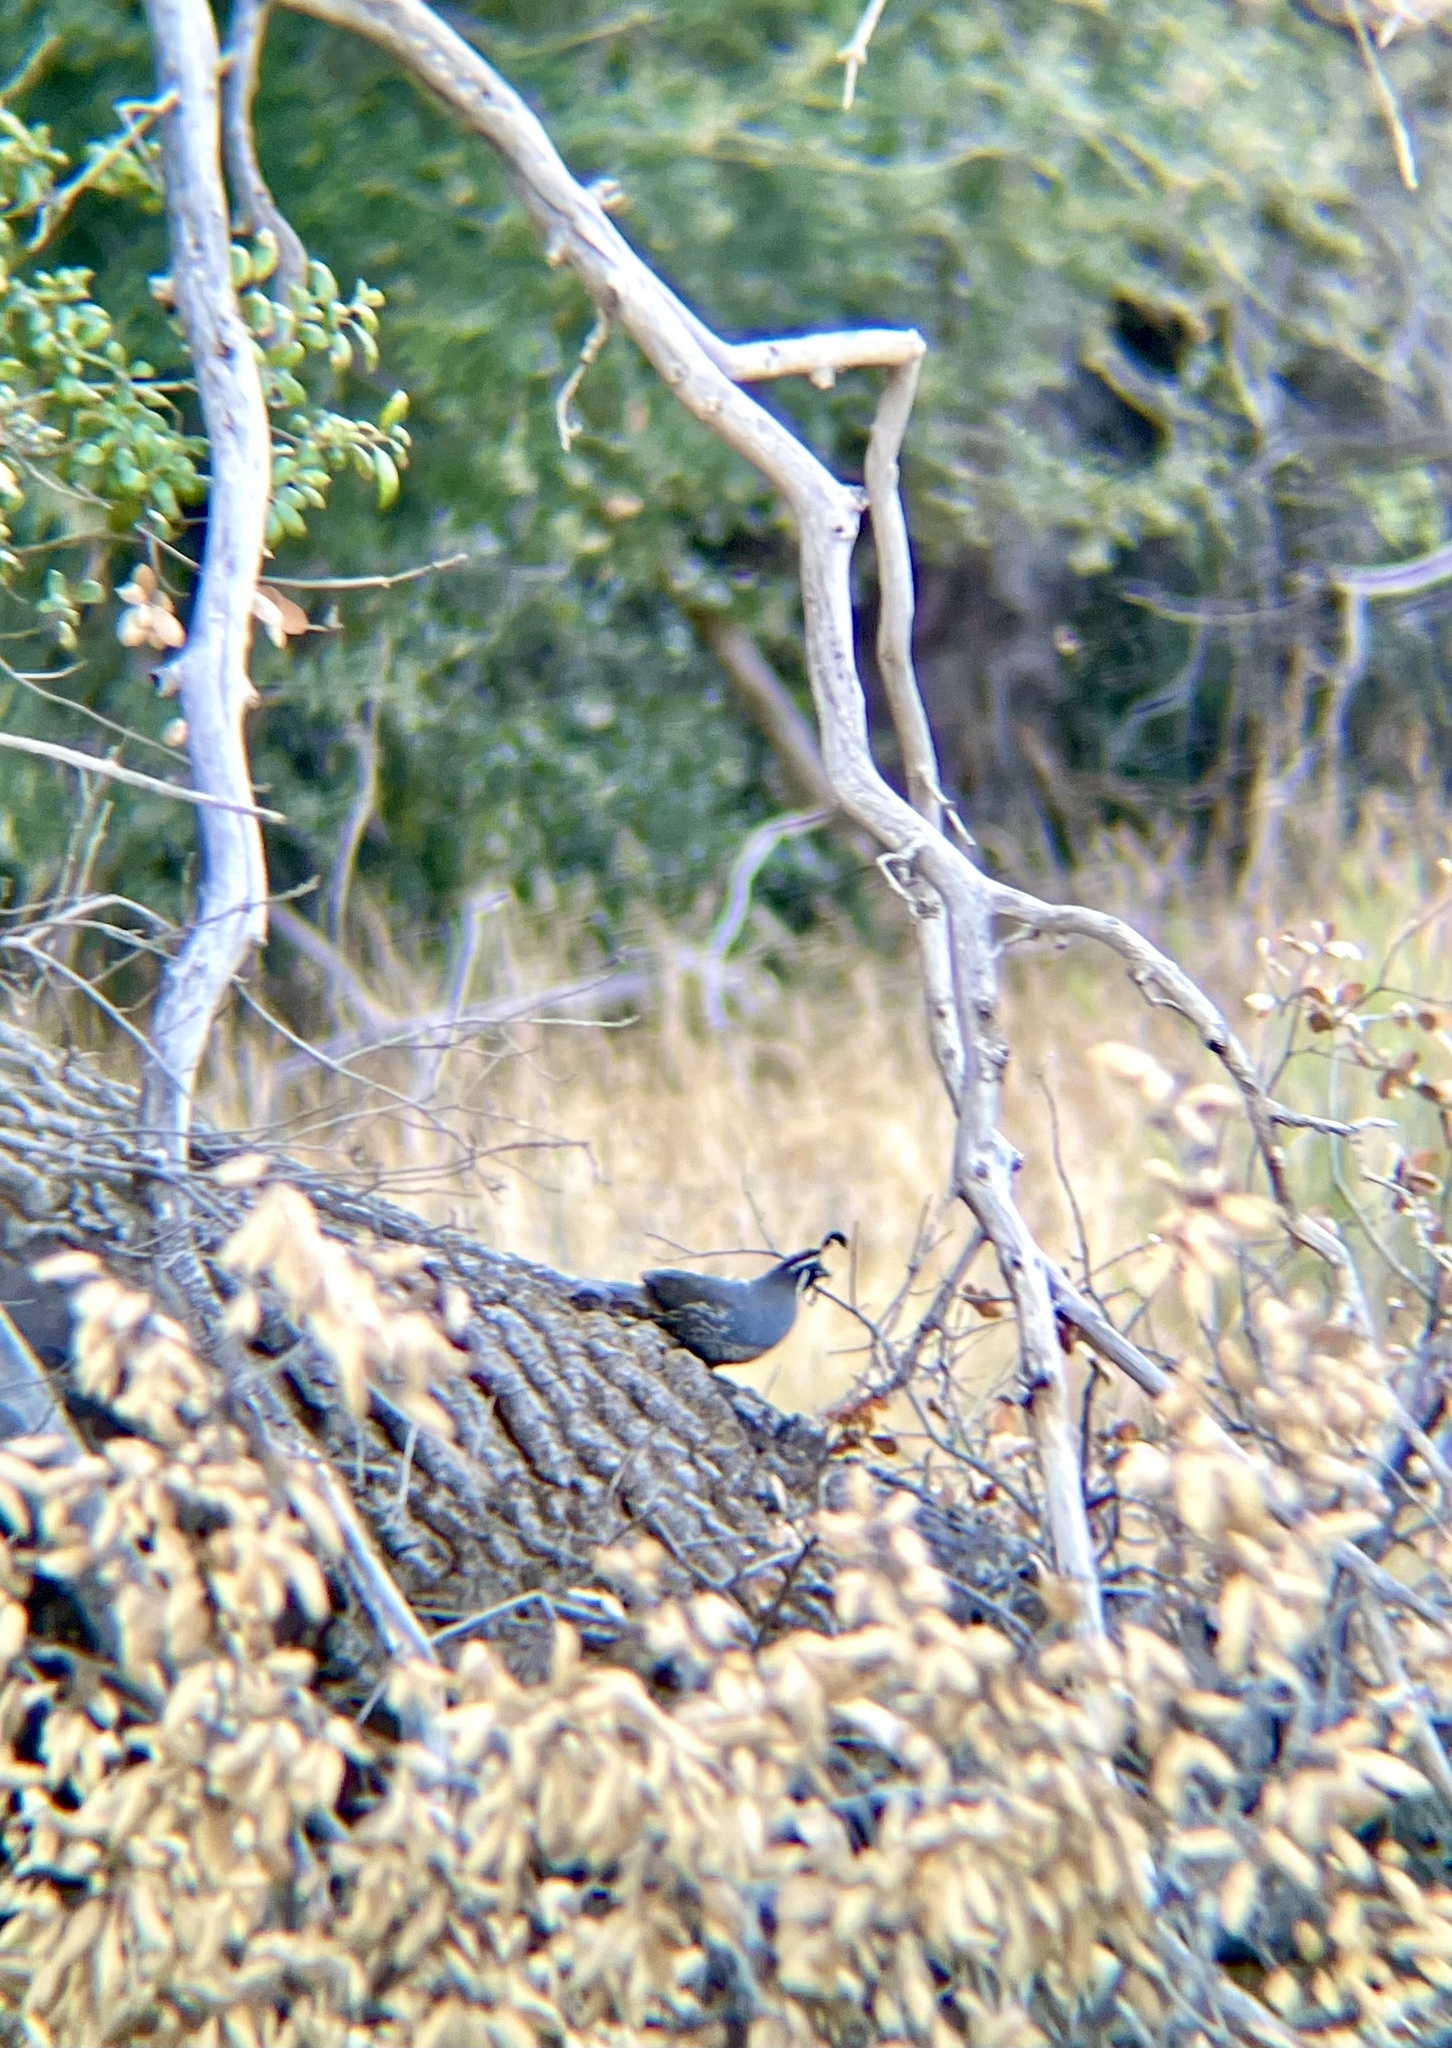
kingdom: Animalia
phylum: Chordata
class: Aves
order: Galliformes
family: Odontophoridae
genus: Callipepla
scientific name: Callipepla californica
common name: California quail
